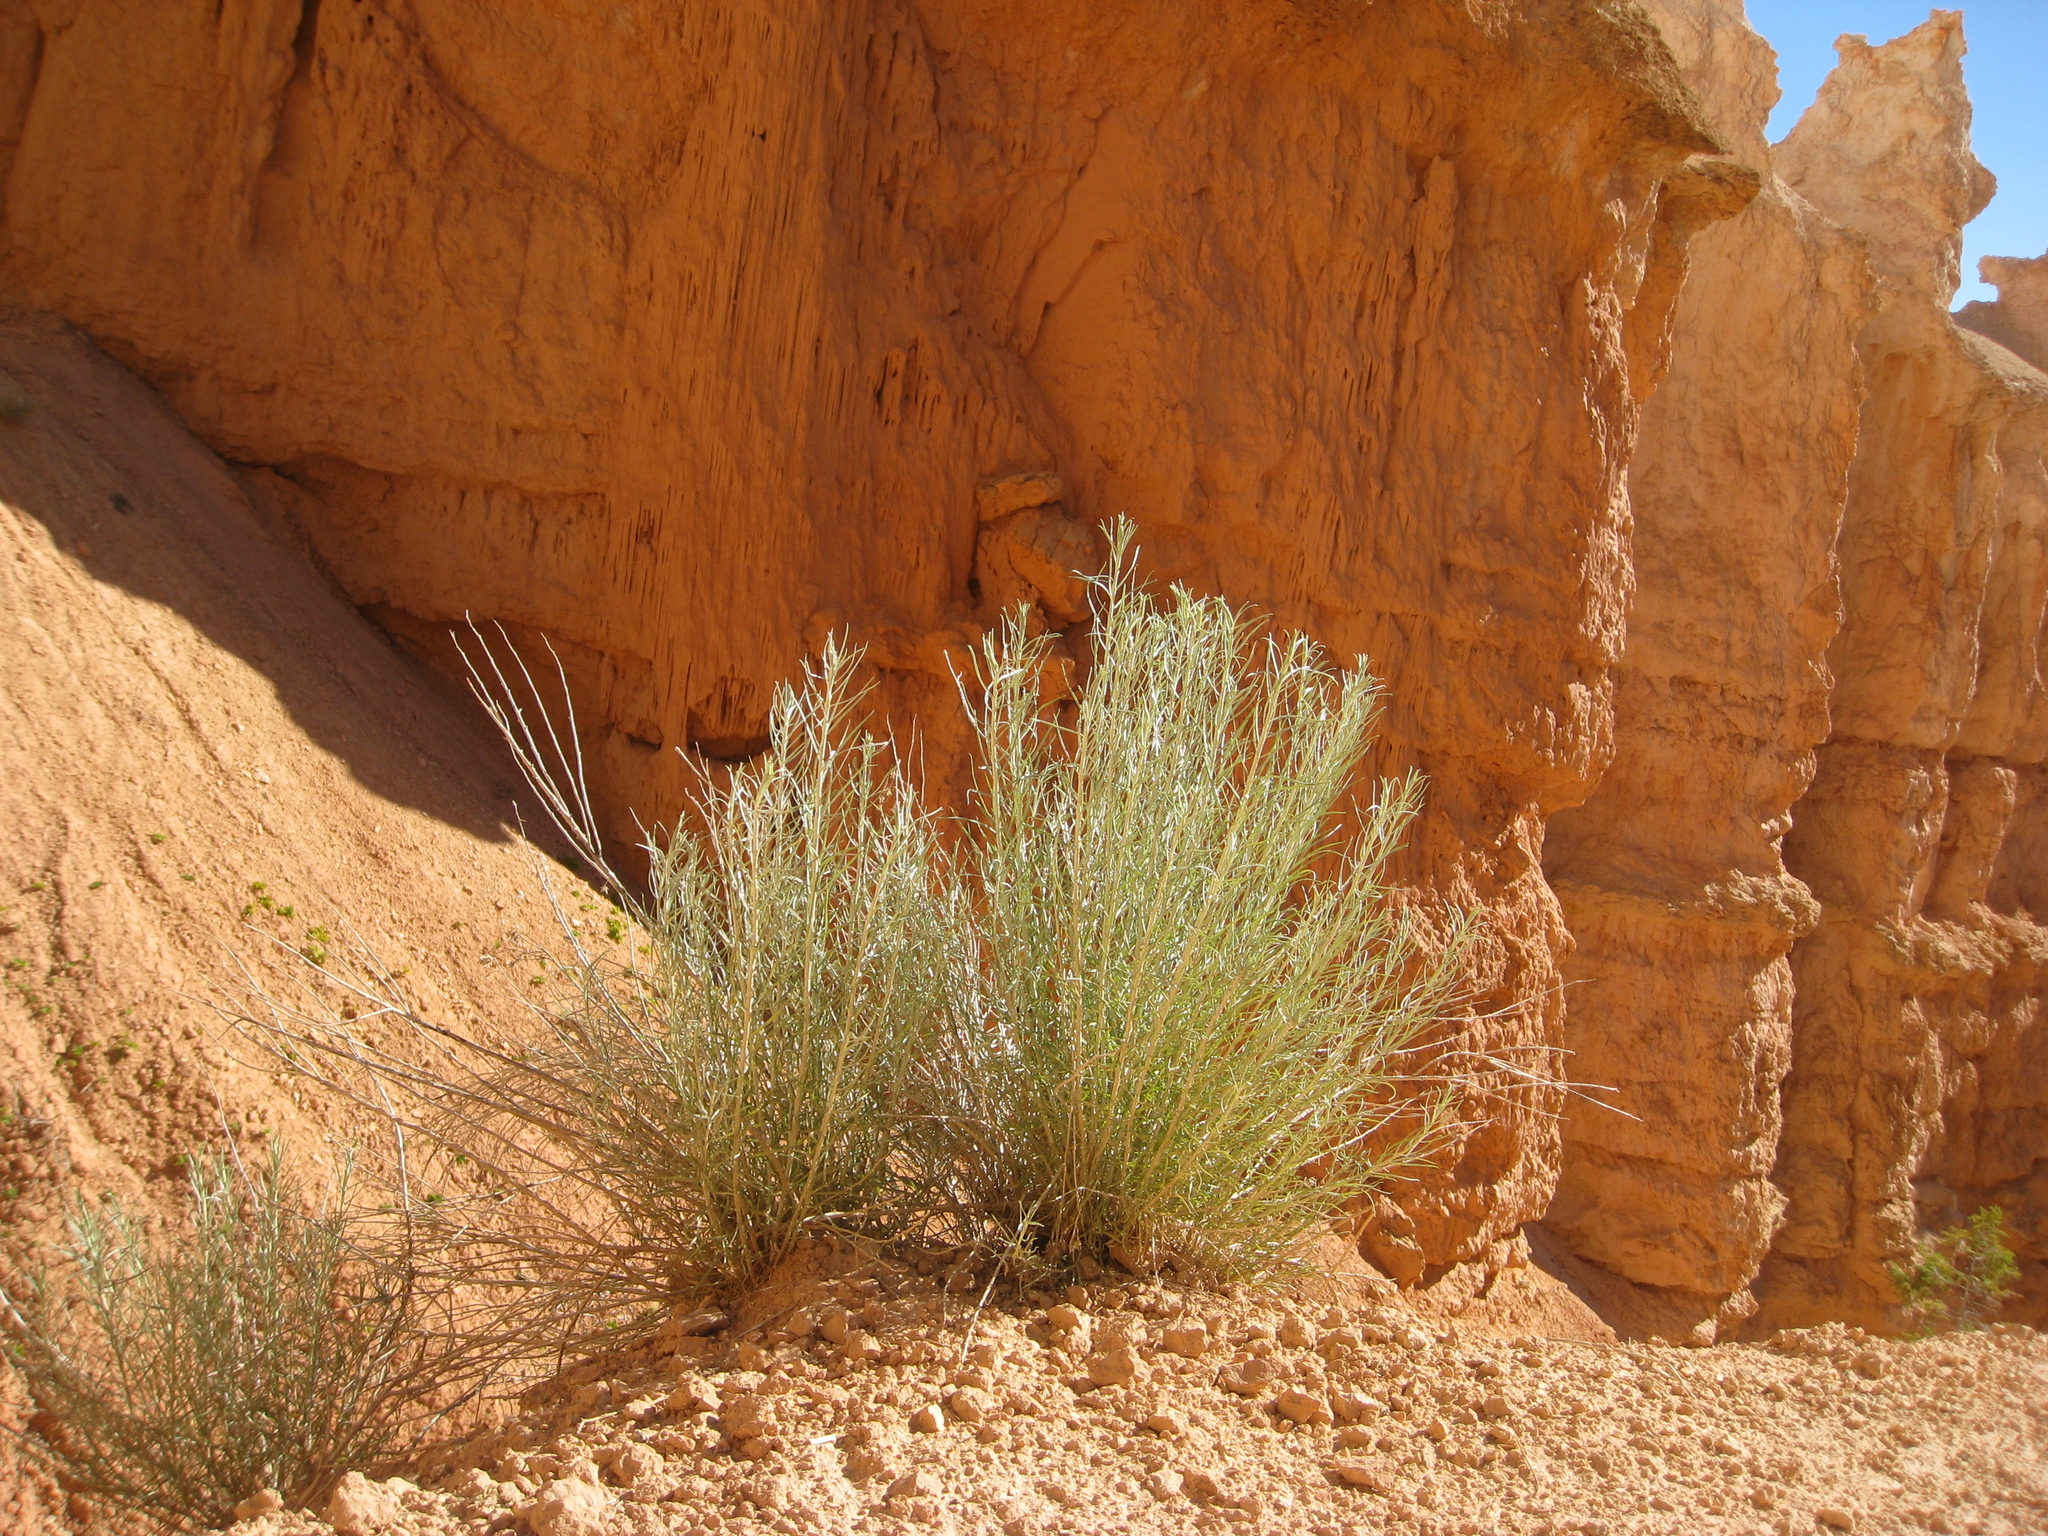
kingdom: Plantae
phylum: Tracheophyta
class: Magnoliopsida
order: Asterales
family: Asteraceae
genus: Ericameria
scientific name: Ericameria nauseosa
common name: Rubber rabbitbrush
